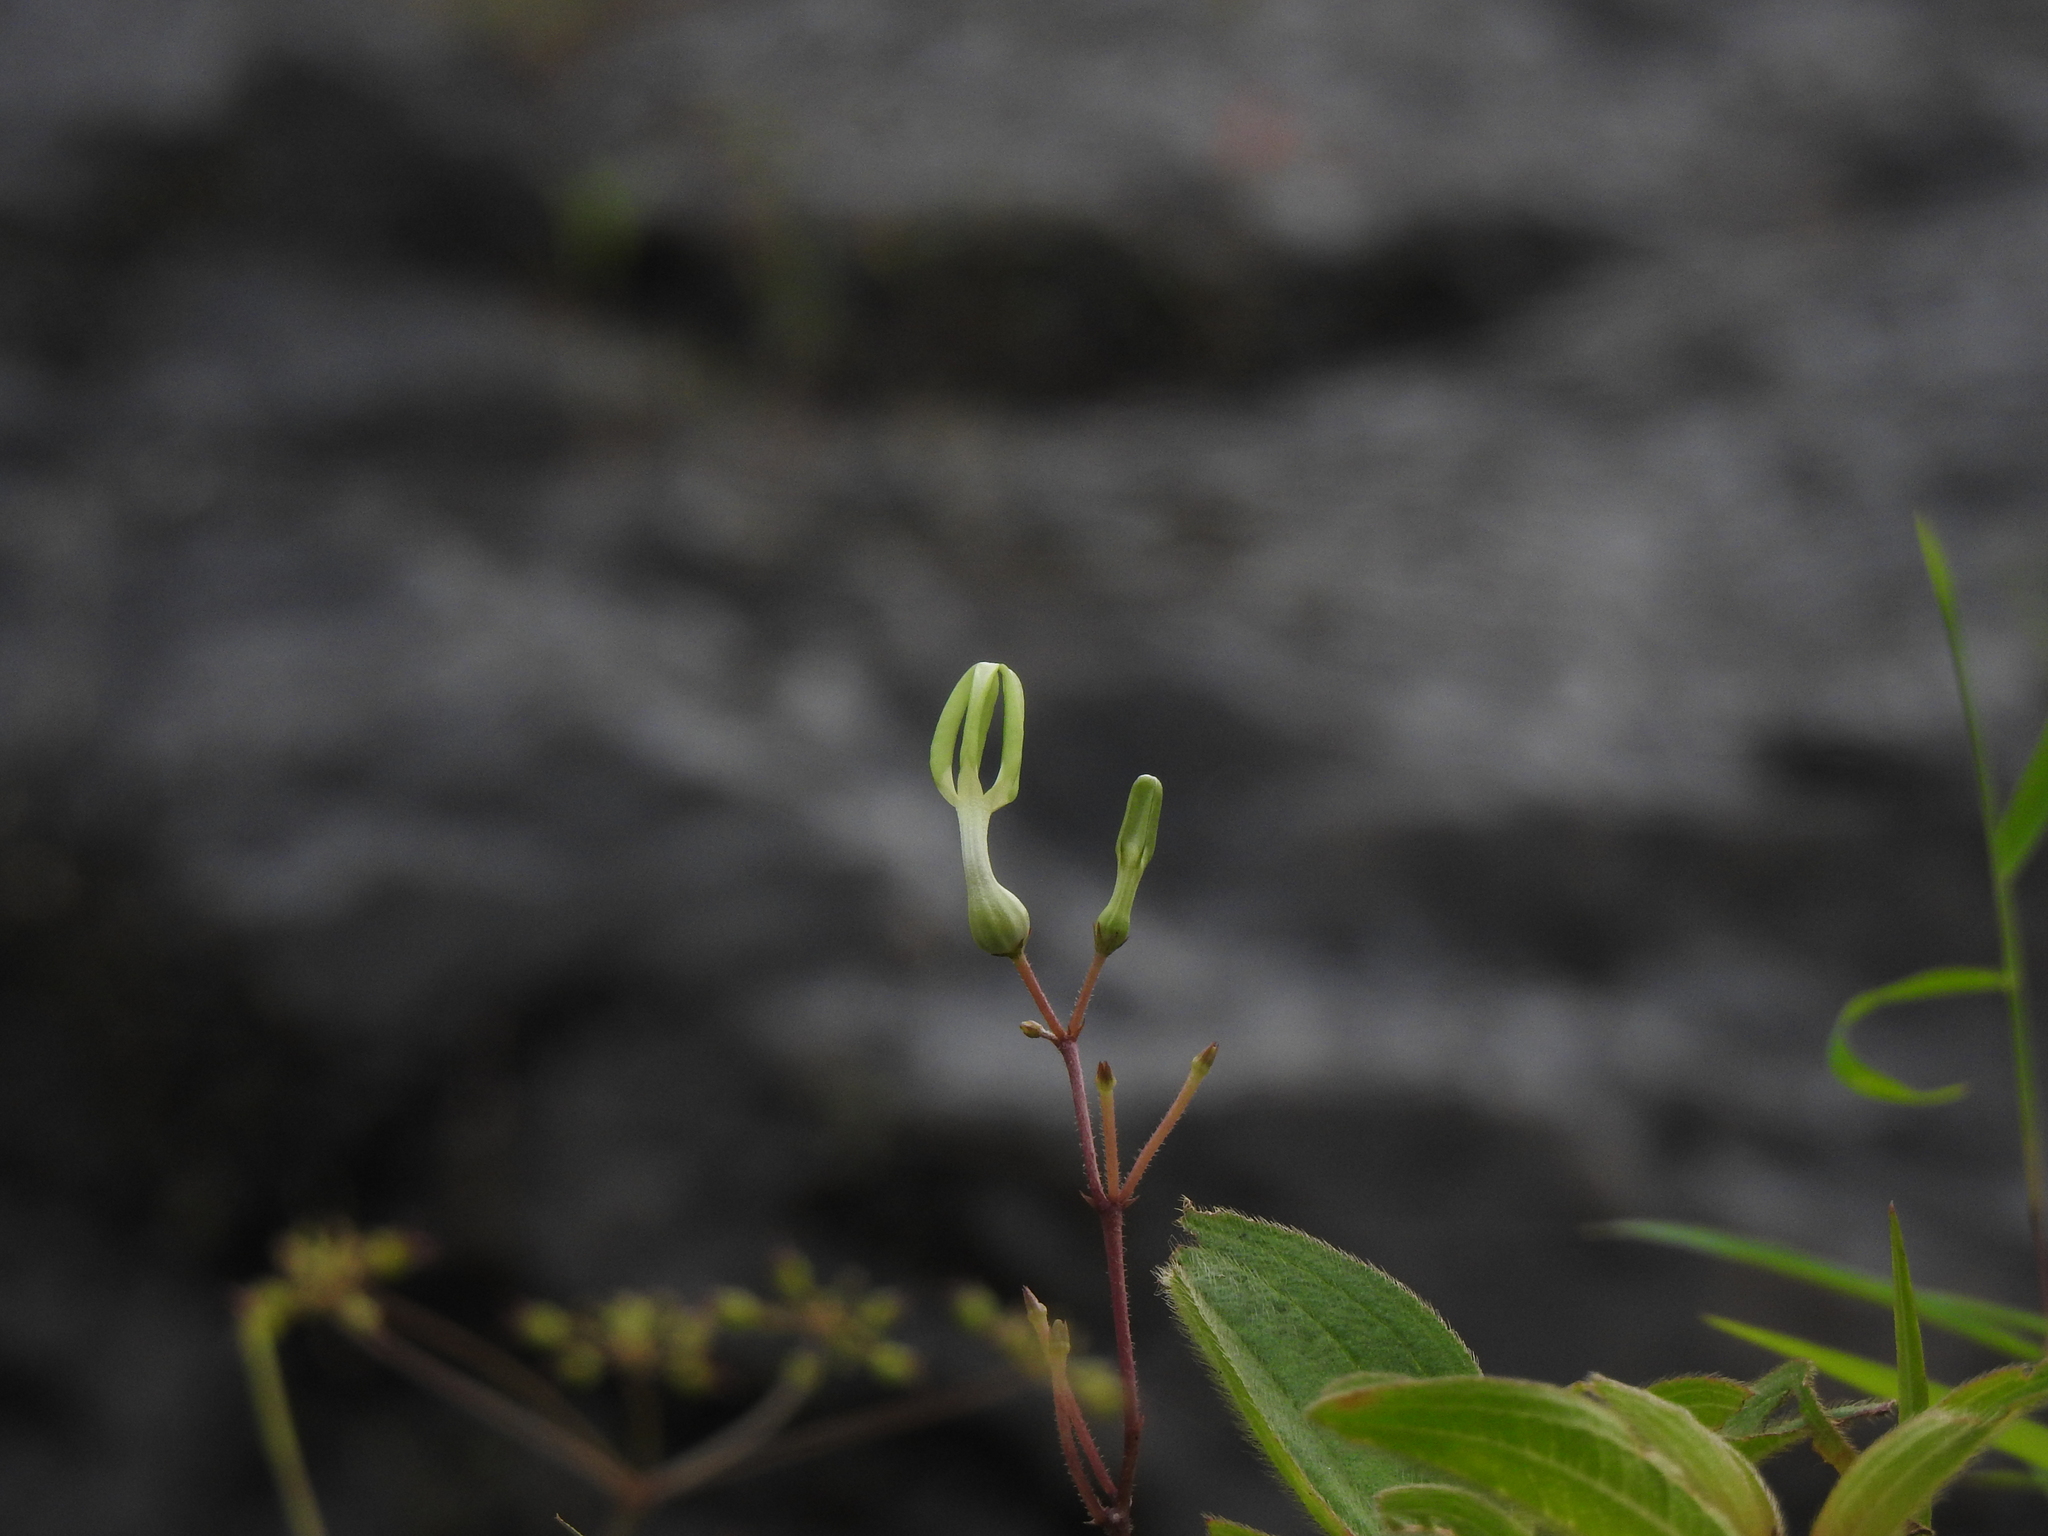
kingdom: Plantae
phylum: Tracheophyta
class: Magnoliopsida
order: Gentianales
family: Apocynaceae
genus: Ceropegia
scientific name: Ceropegia ensifolia
